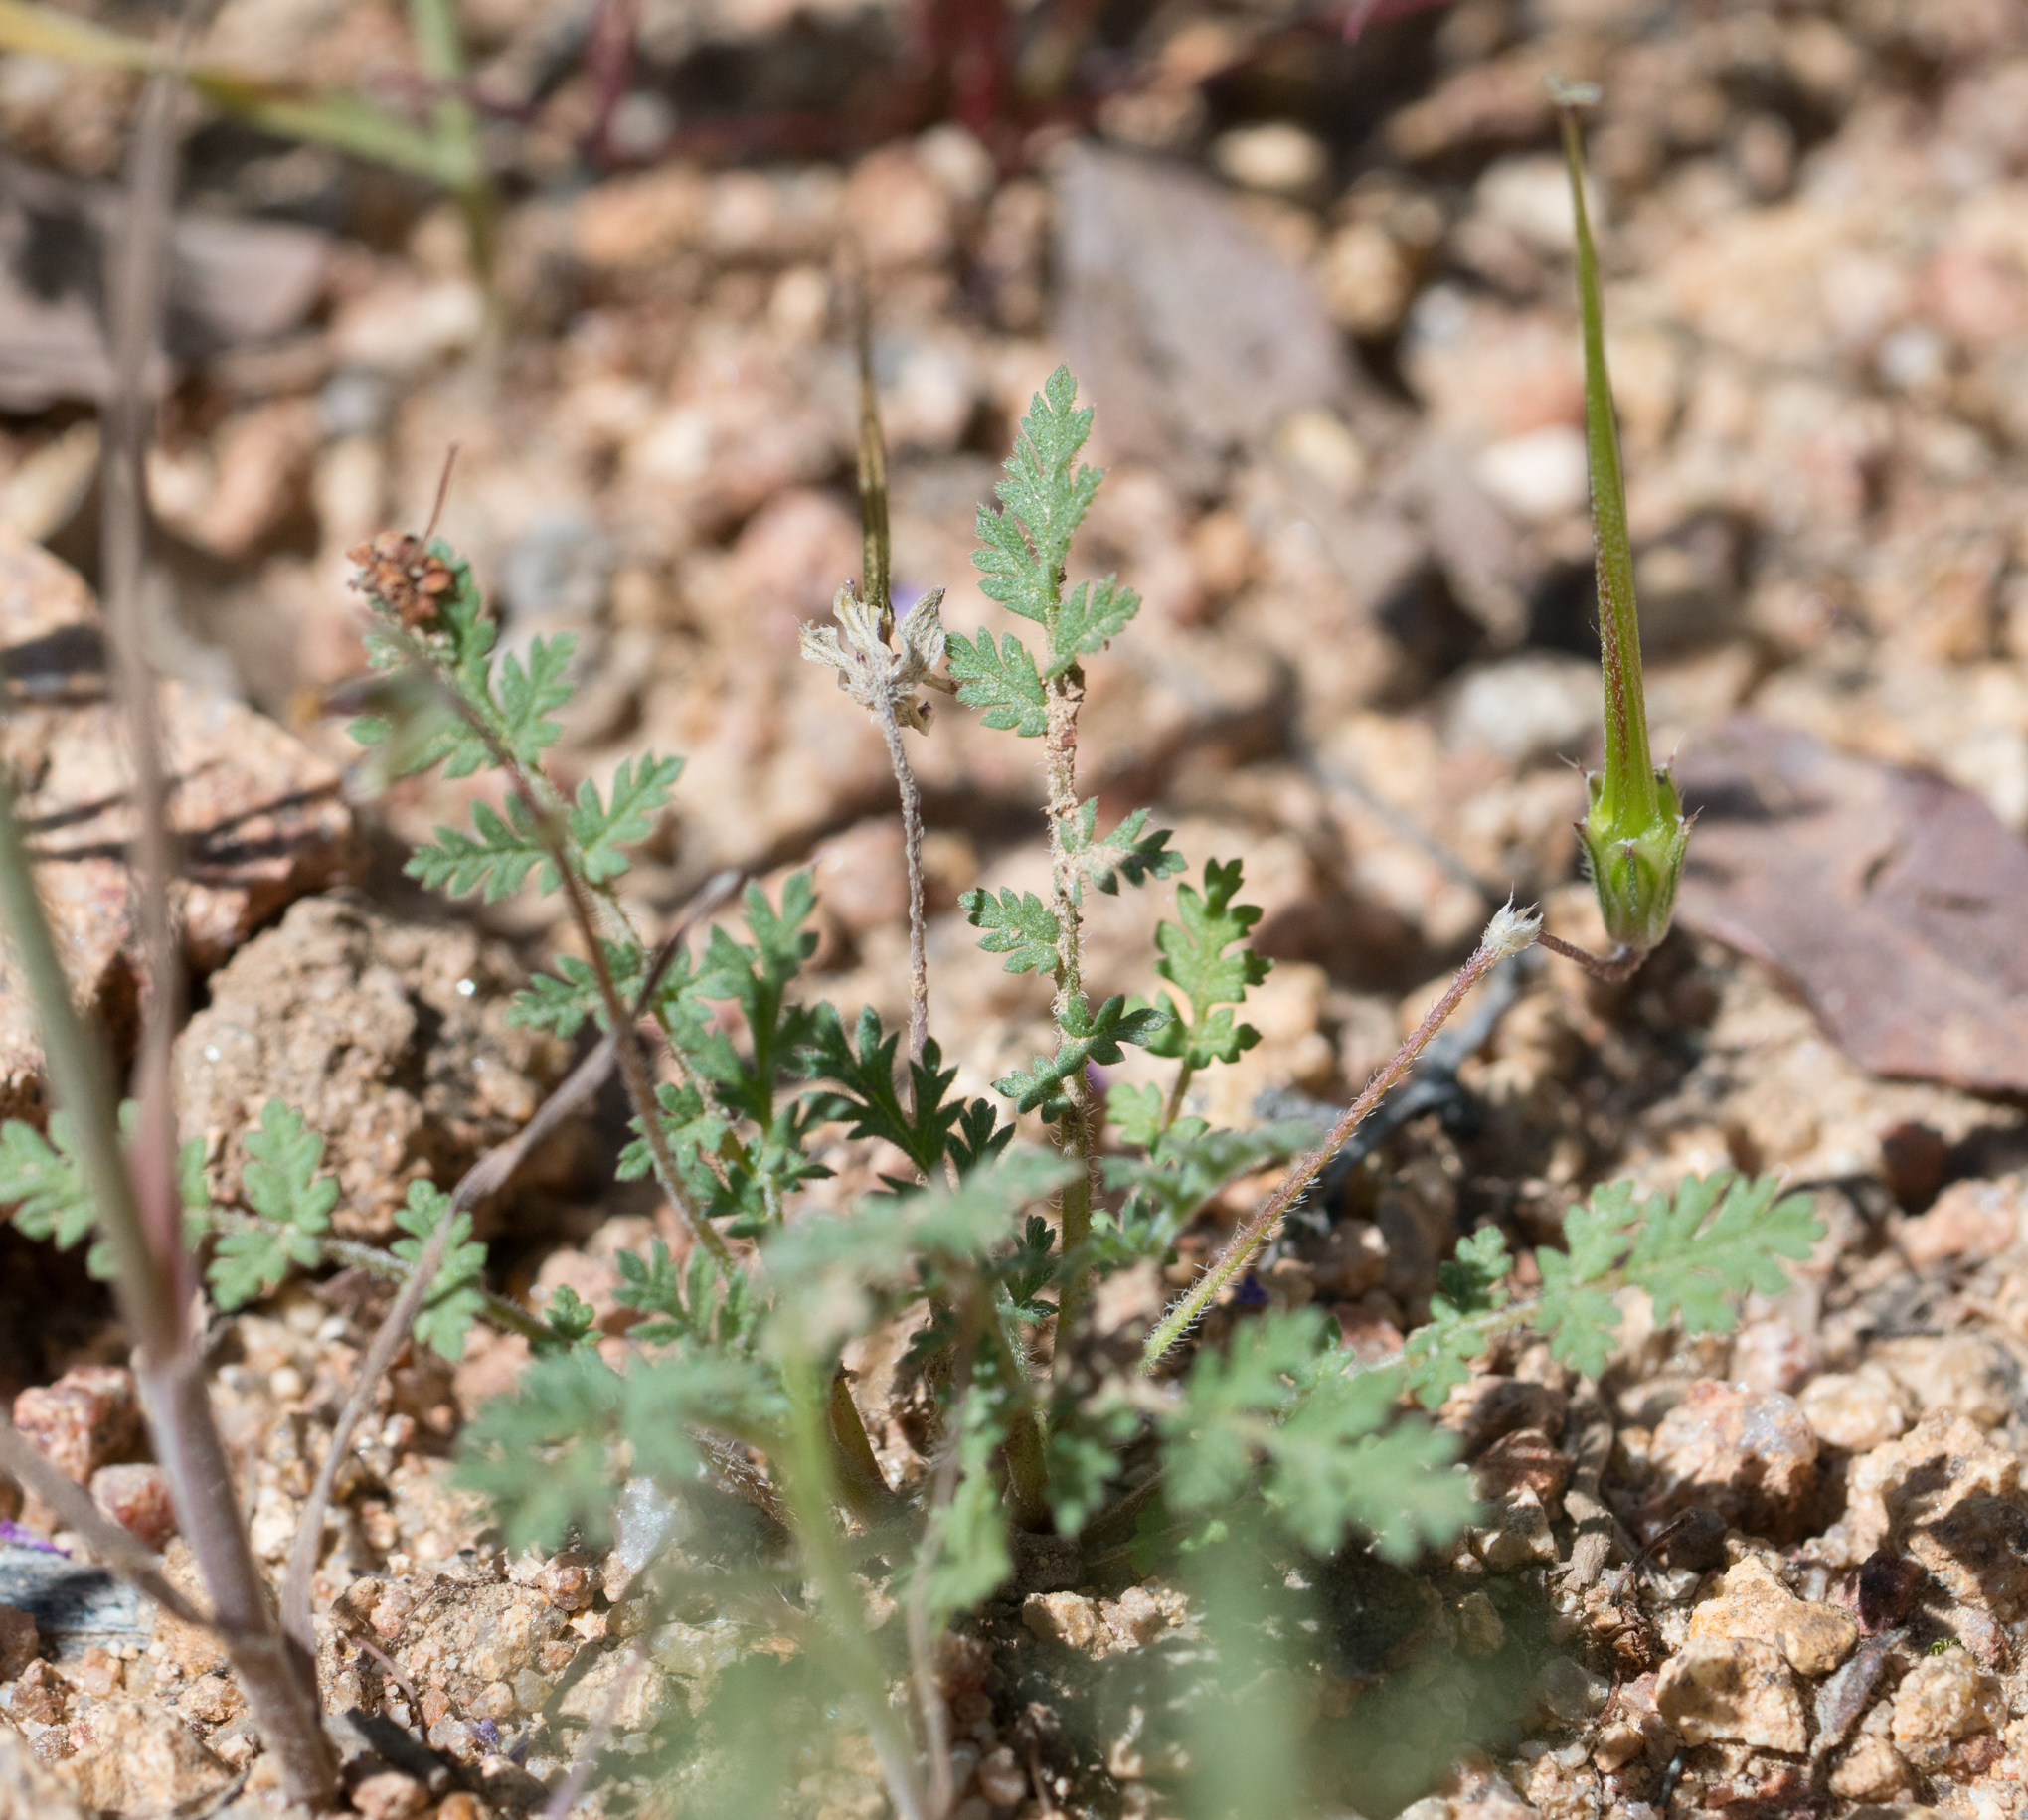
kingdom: Plantae
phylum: Tracheophyta
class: Magnoliopsida
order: Geraniales
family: Geraniaceae
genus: Erodium
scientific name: Erodium cicutarium
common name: Common stork's-bill
